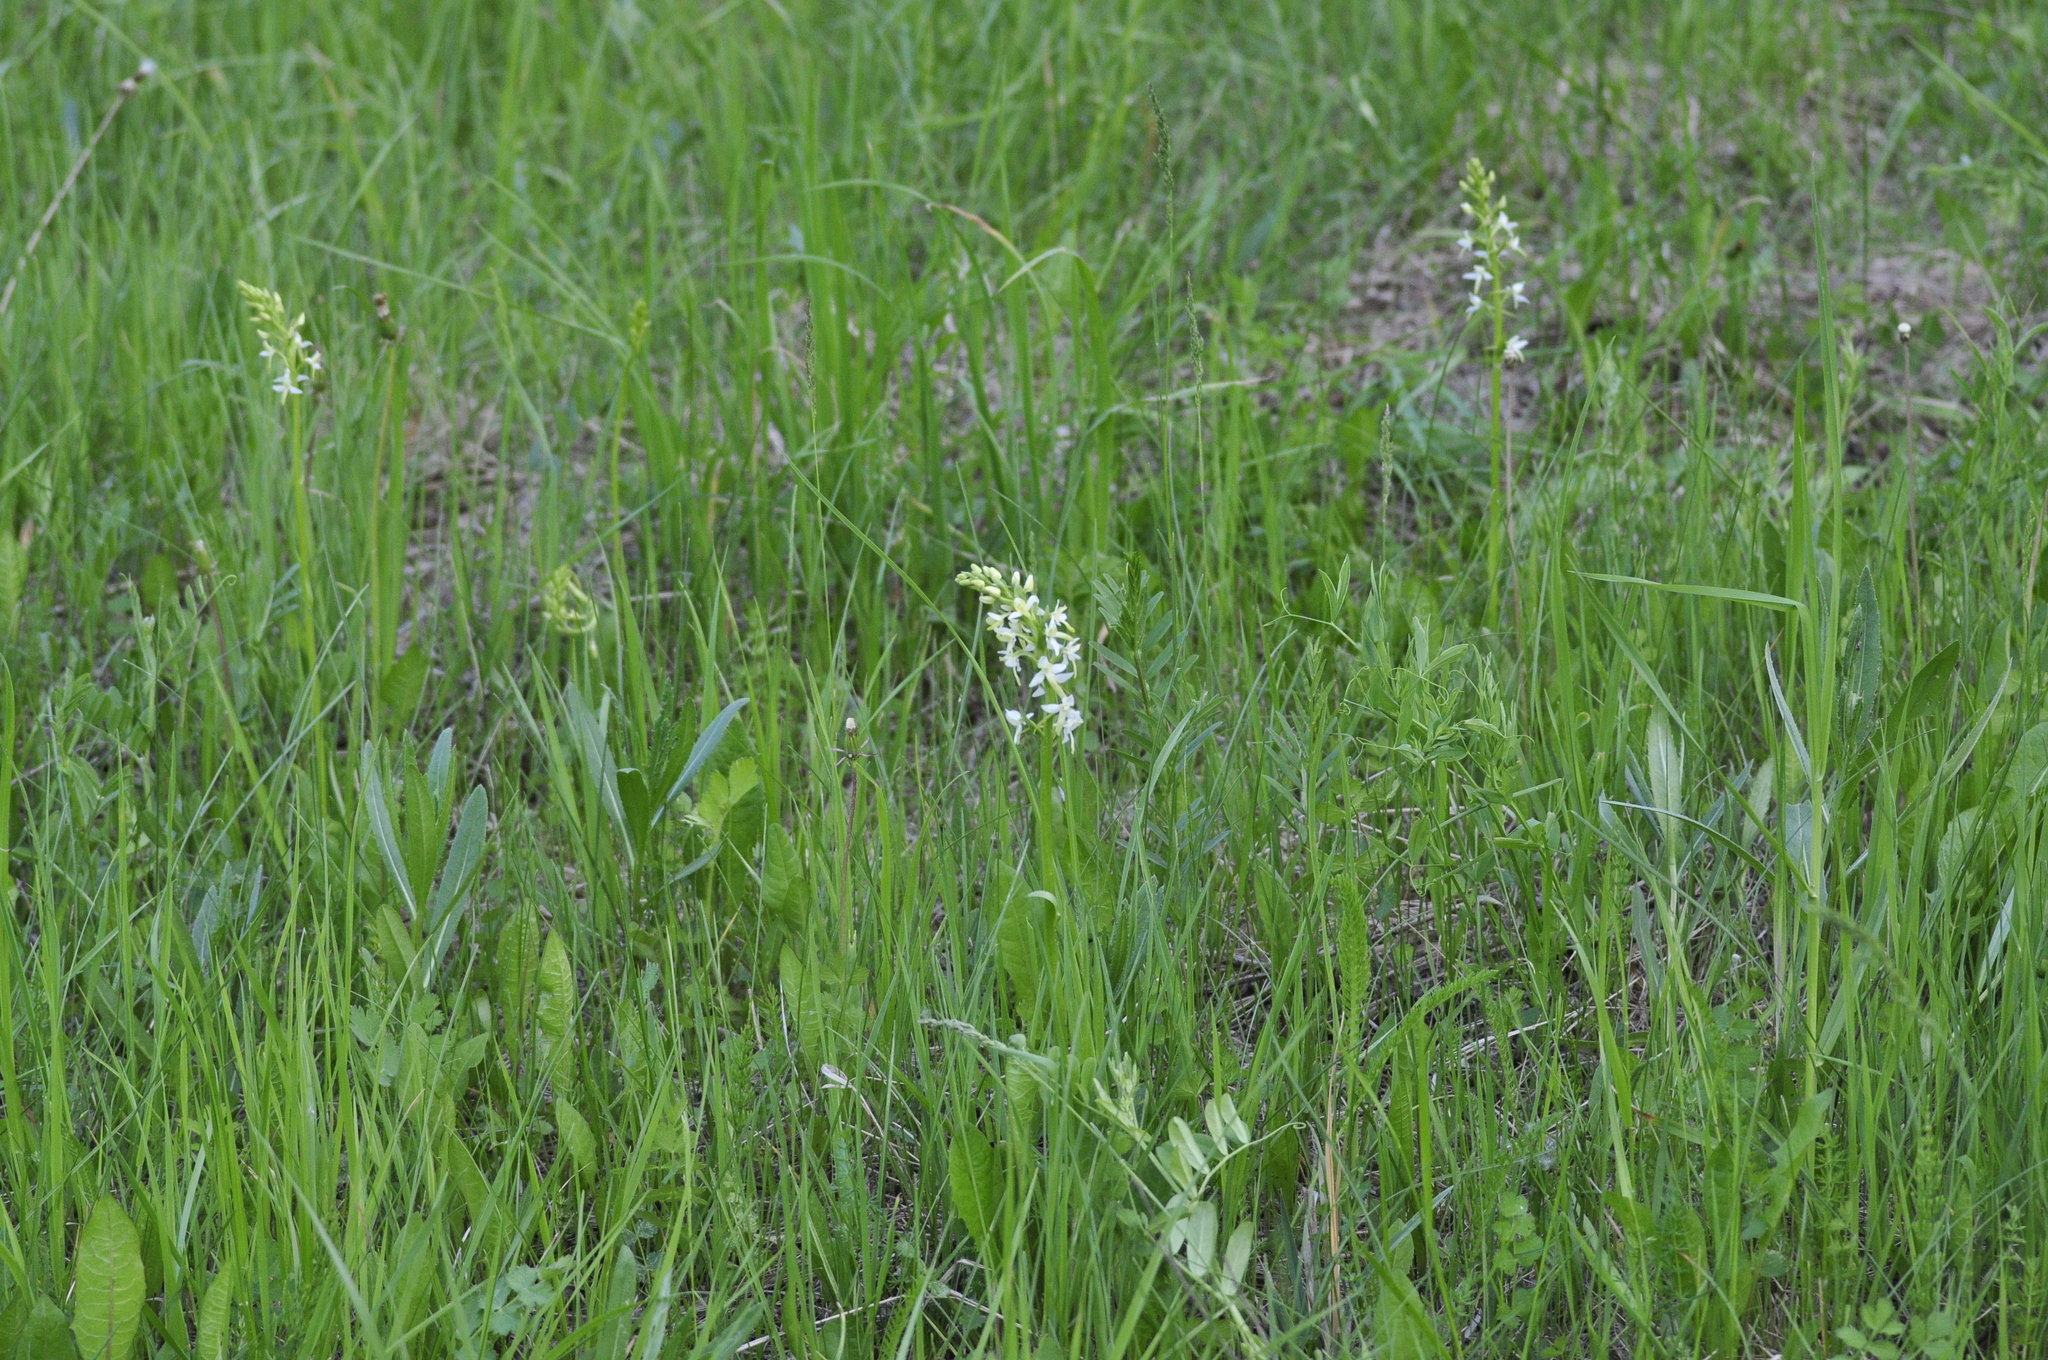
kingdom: Plantae
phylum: Tracheophyta
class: Liliopsida
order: Asparagales
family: Orchidaceae
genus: Platanthera
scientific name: Platanthera bifolia
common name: Lesser butterfly-orchid
